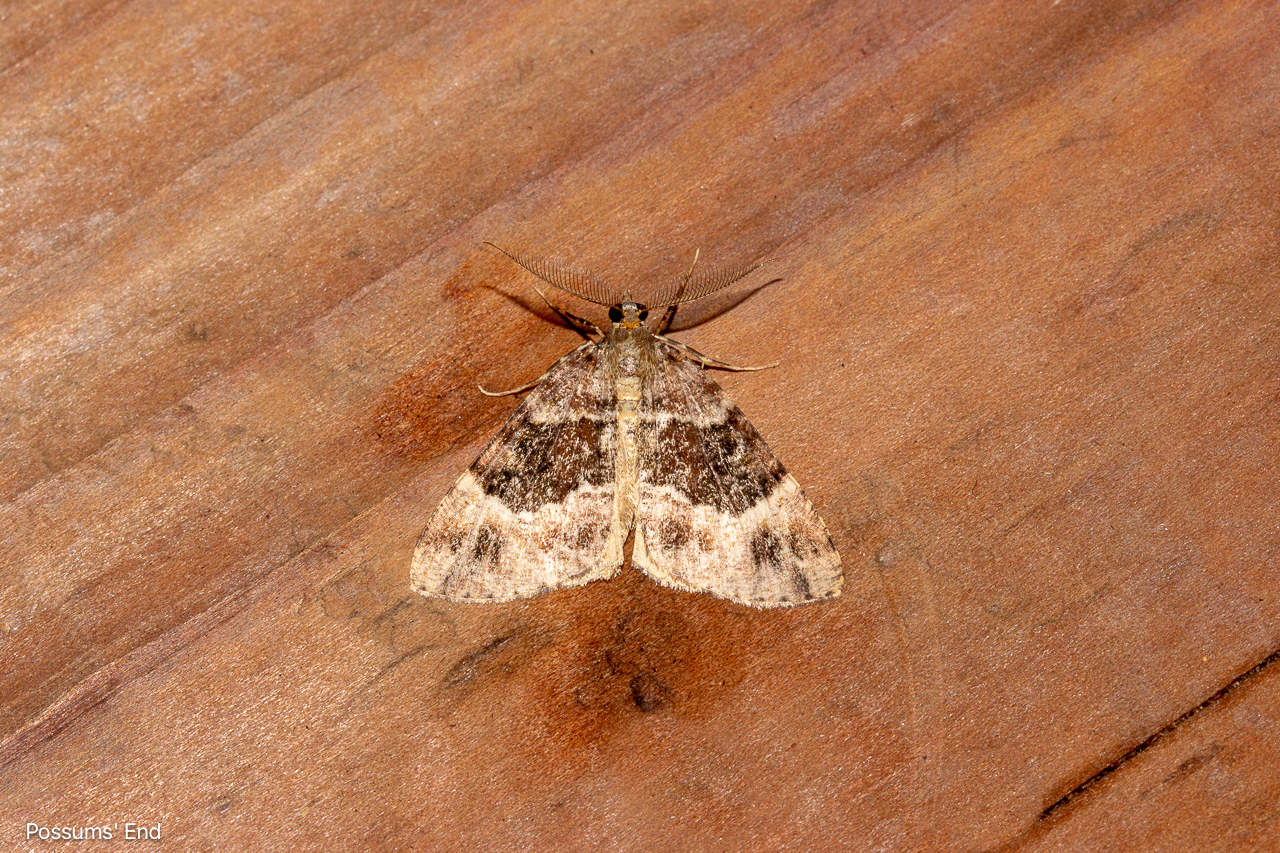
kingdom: Animalia
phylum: Arthropoda
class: Insecta
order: Lepidoptera
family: Geometridae
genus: Pseudocoremia
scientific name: Pseudocoremia productata
